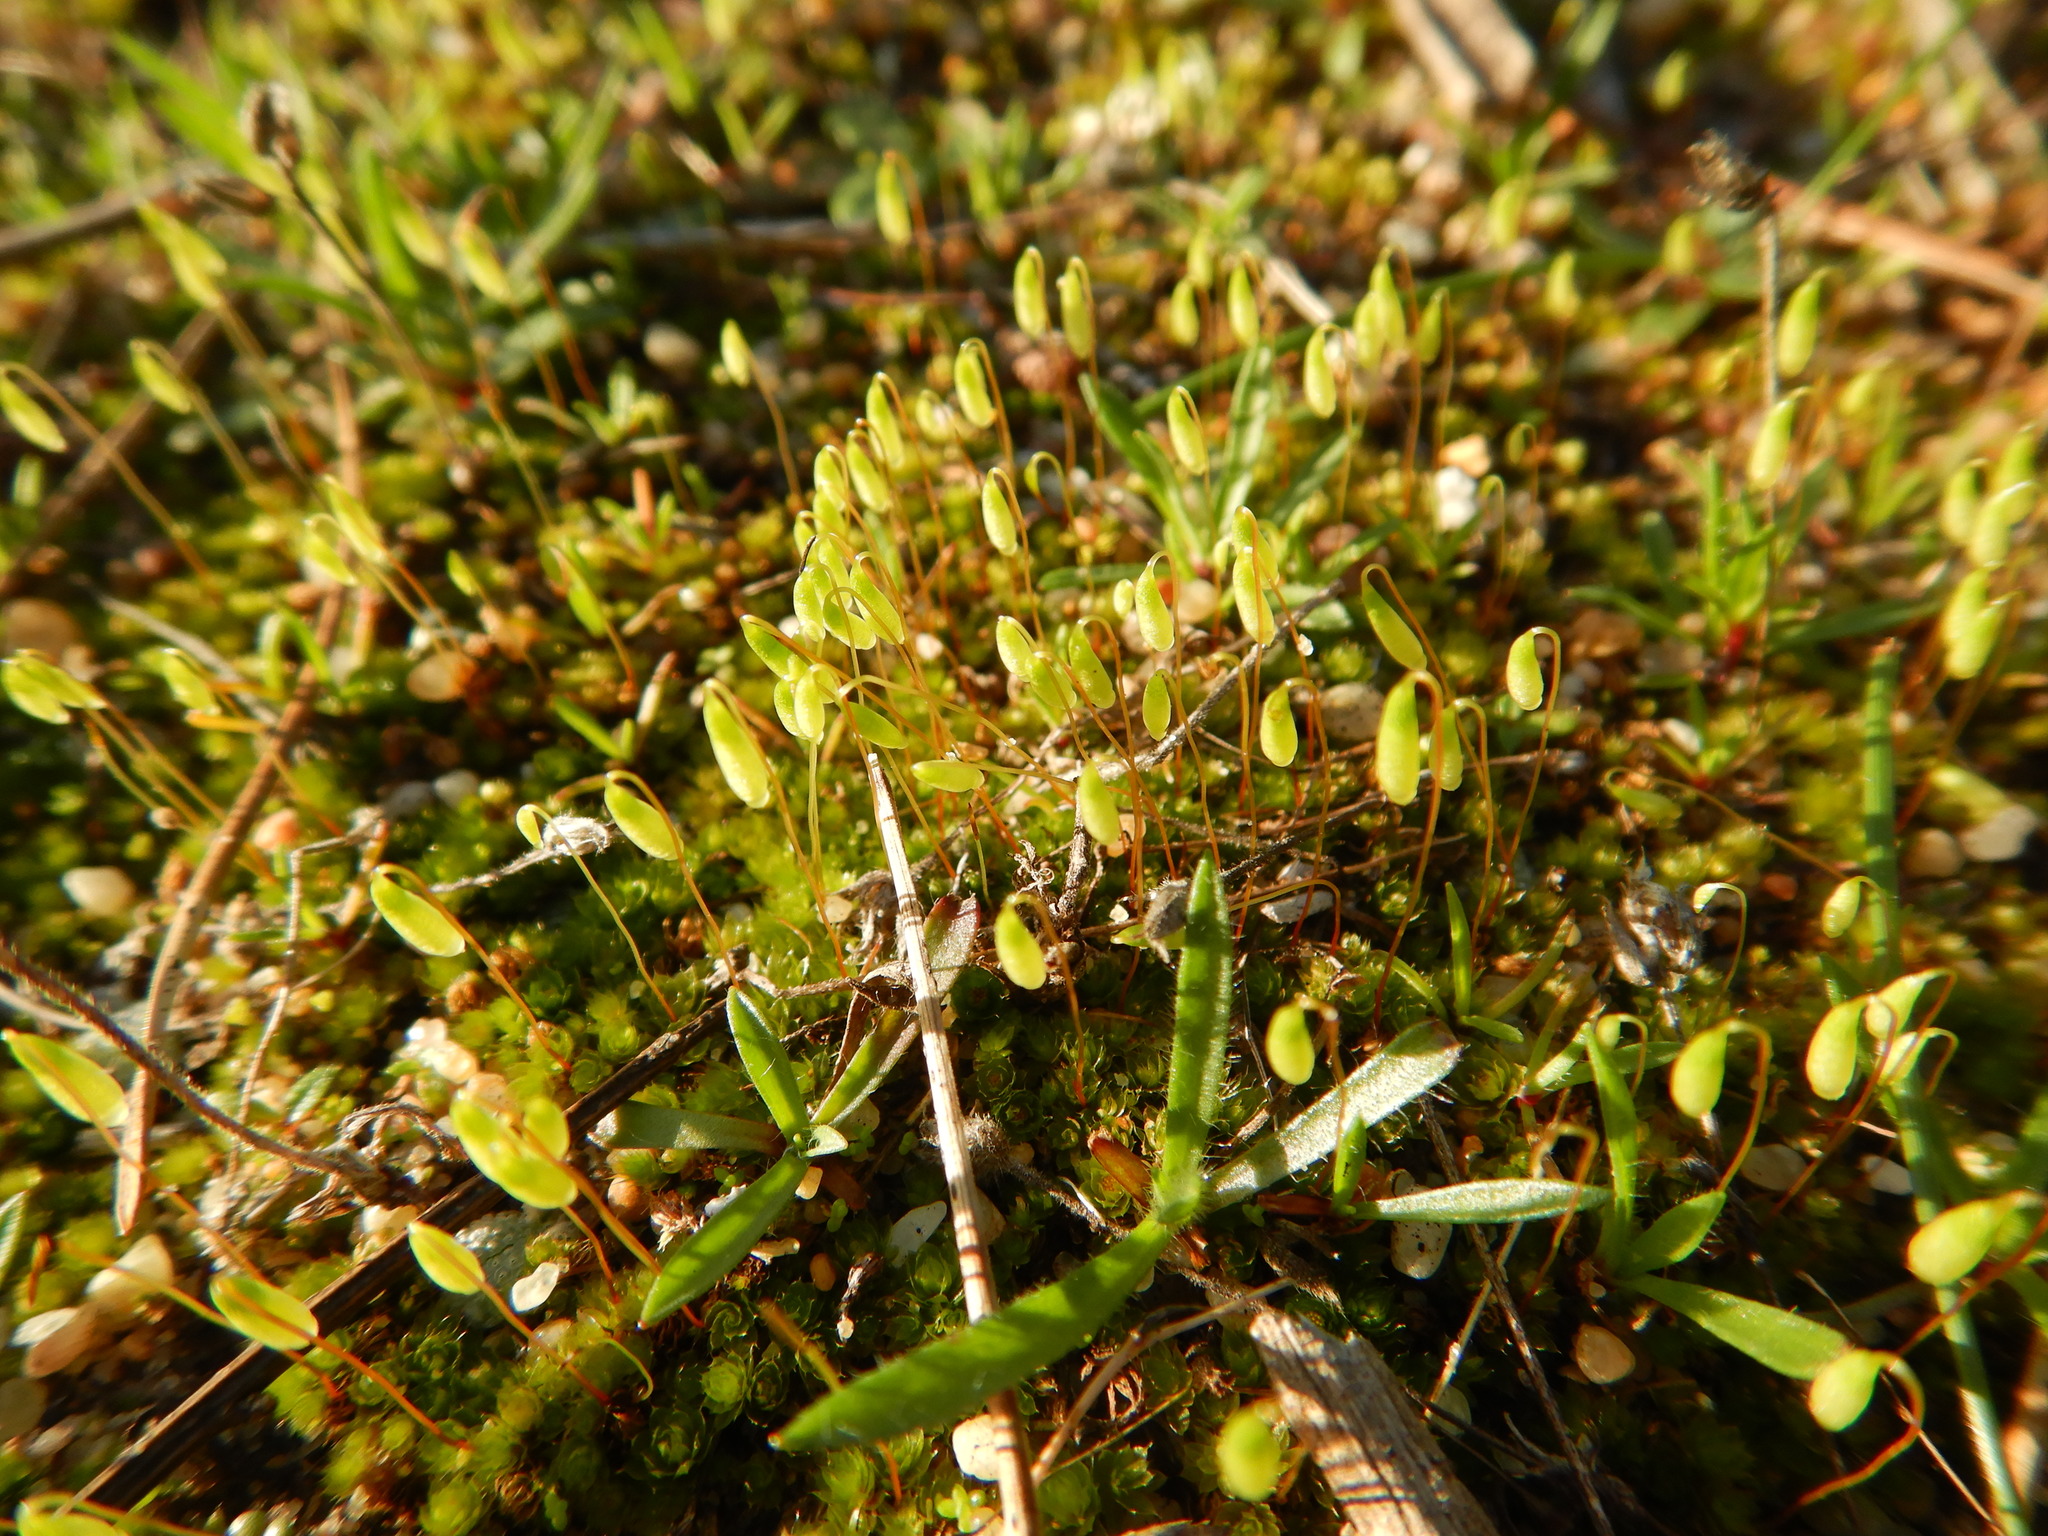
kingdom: Plantae
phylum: Bryophyta
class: Bryopsida
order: Bryales
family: Bryaceae
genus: Rosulabryum
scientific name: Rosulabryum capillare
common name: Capillary thread-moss
